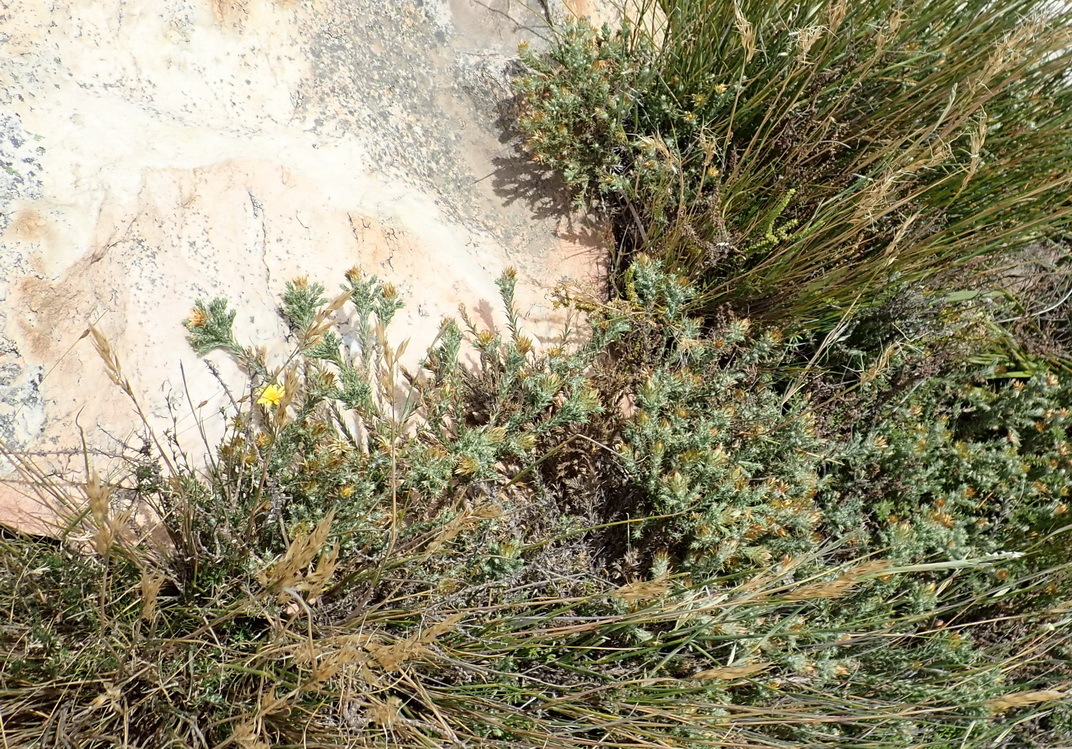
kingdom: Plantae
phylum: Tracheophyta
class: Magnoliopsida
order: Asterales
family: Asteraceae
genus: Cullumia
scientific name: Cullumia bisulca
